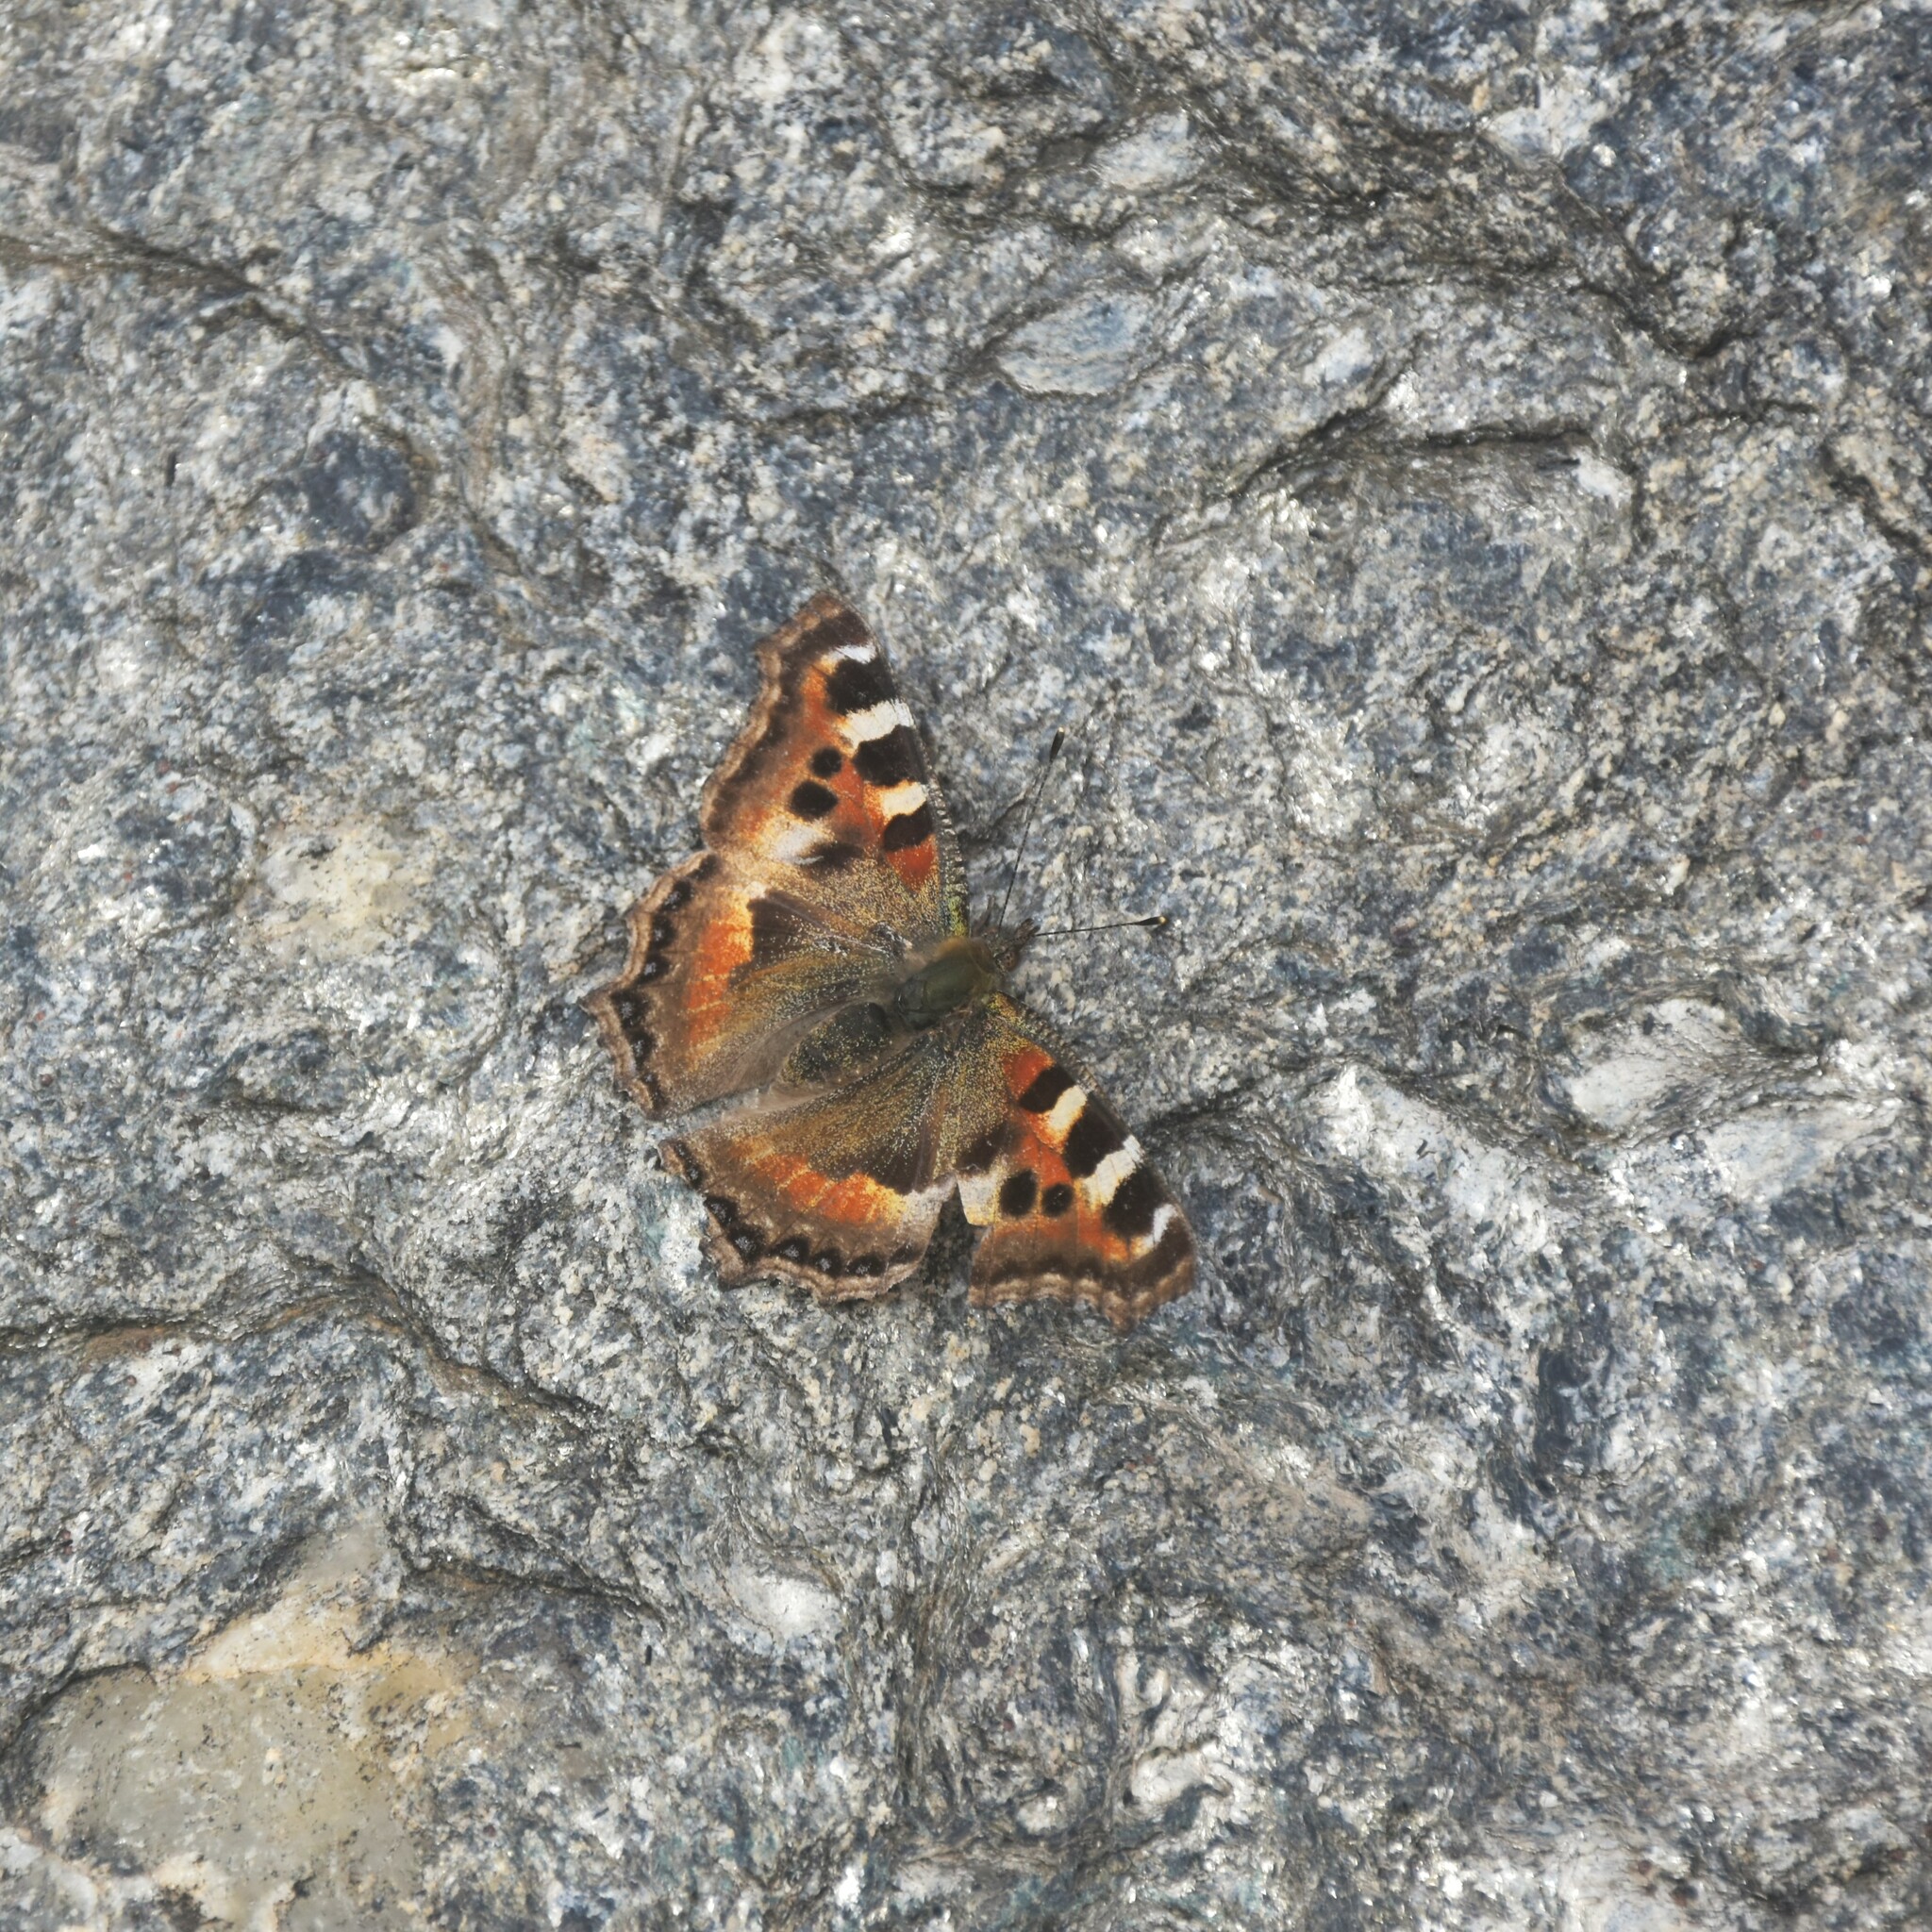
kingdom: Animalia
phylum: Arthropoda
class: Insecta
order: Lepidoptera
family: Nymphalidae
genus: Aglais
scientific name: Aglais caschmirensis
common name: Indian tortoiseshell
